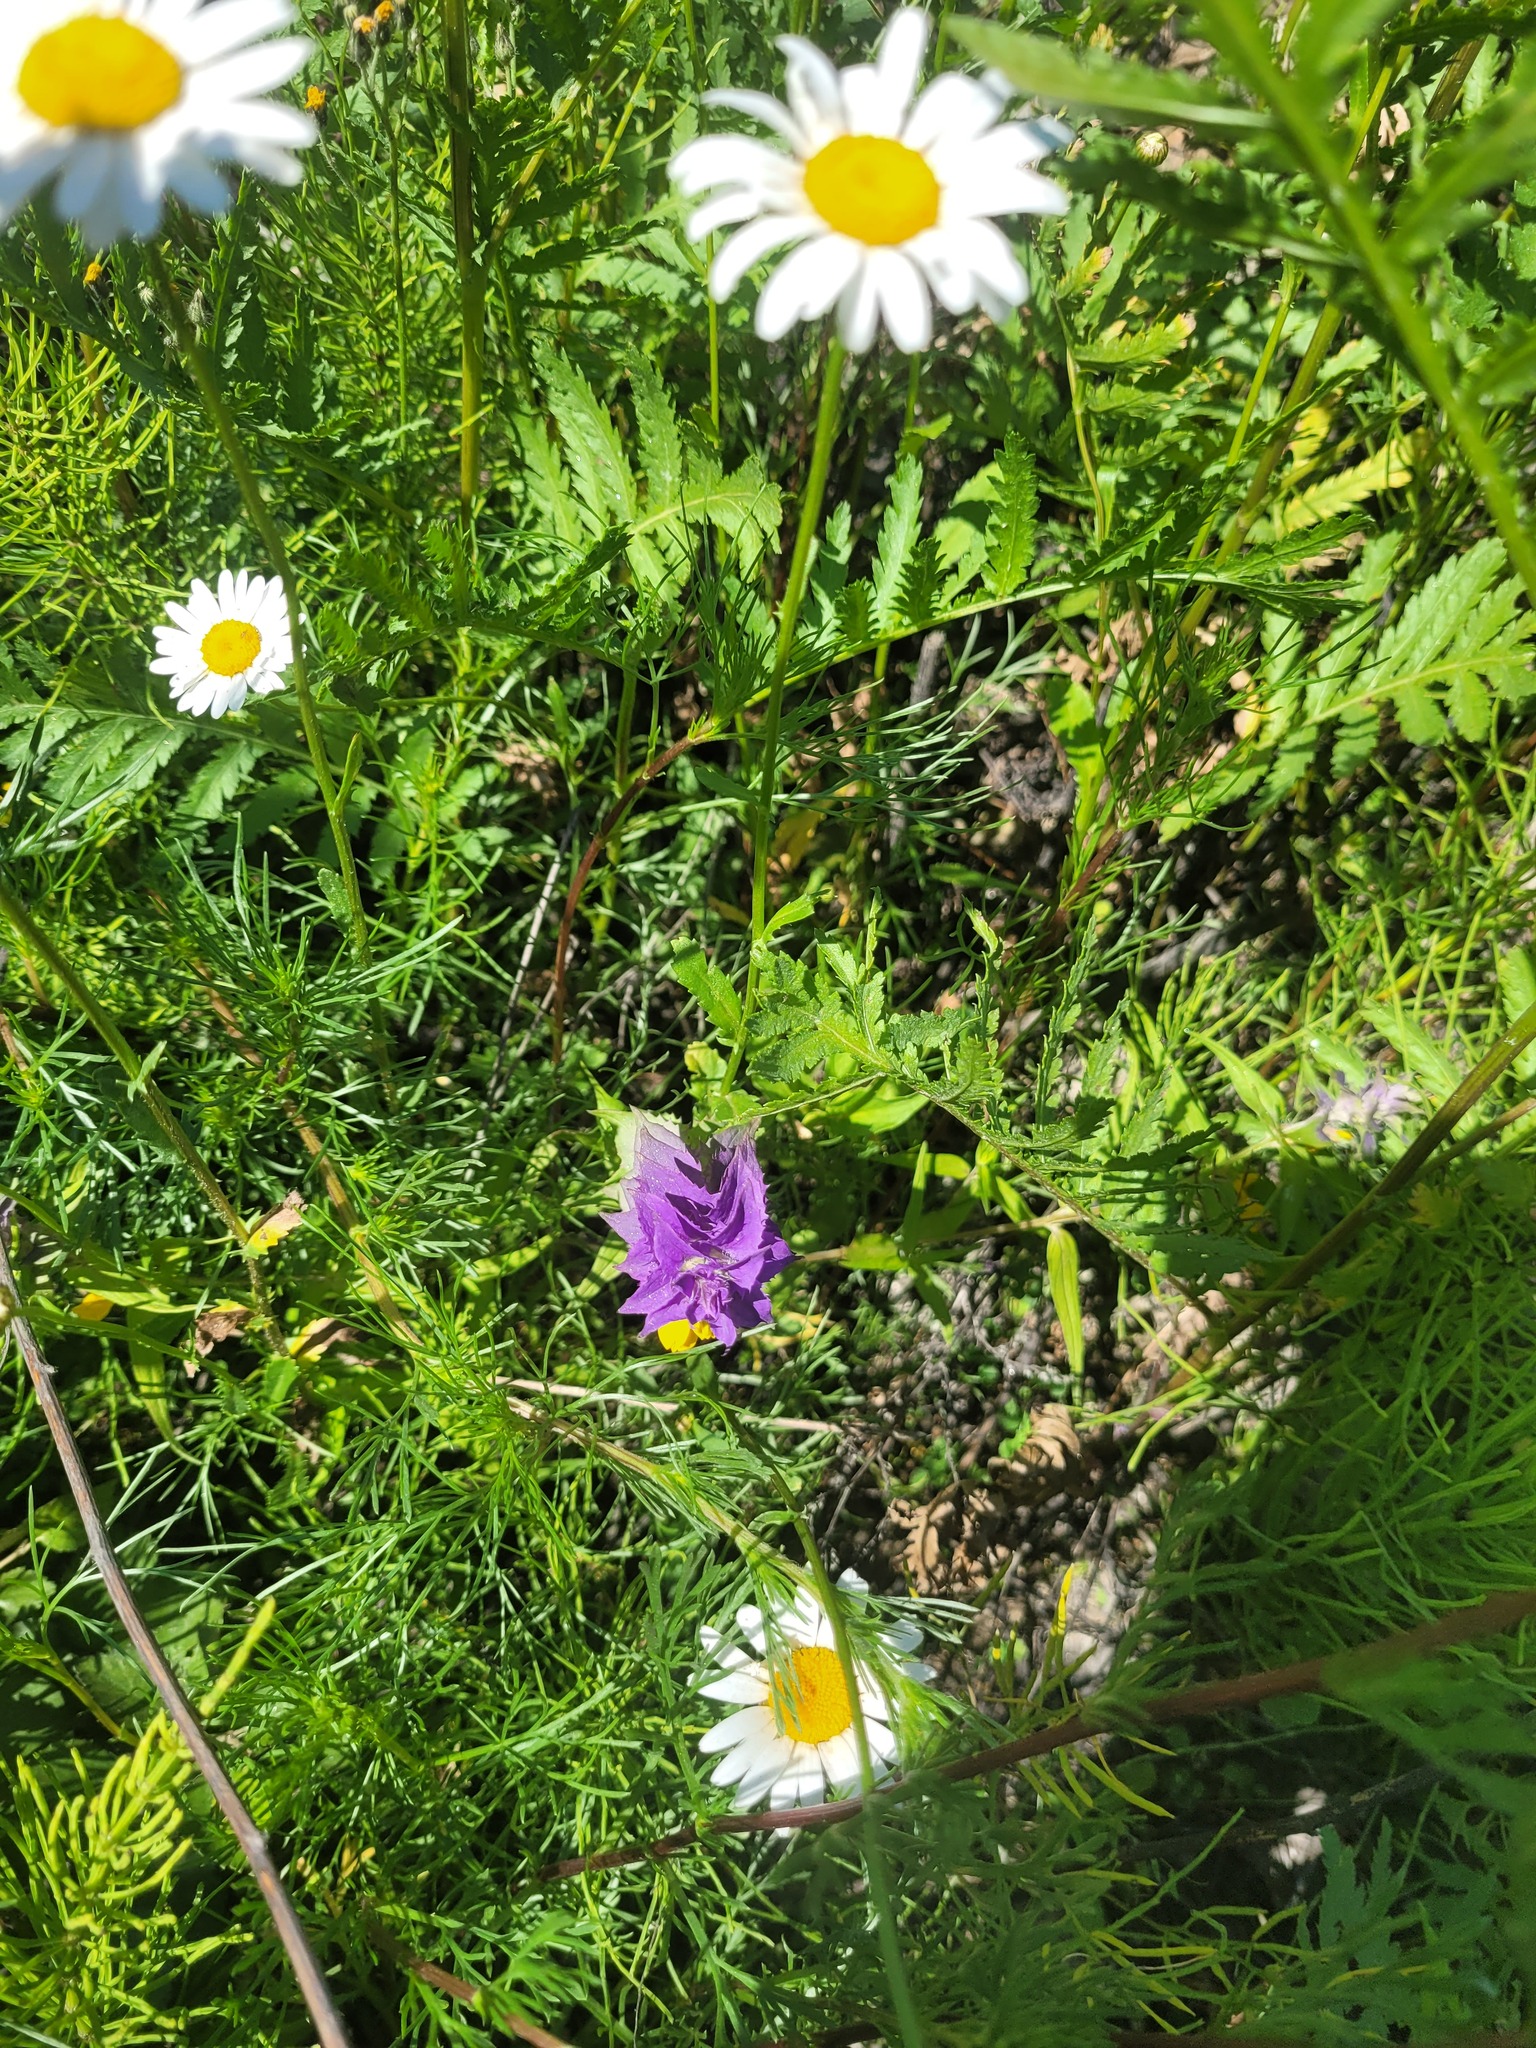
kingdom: Plantae
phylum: Tracheophyta
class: Magnoliopsida
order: Lamiales
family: Orobanchaceae
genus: Melampyrum
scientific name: Melampyrum nemorosum
